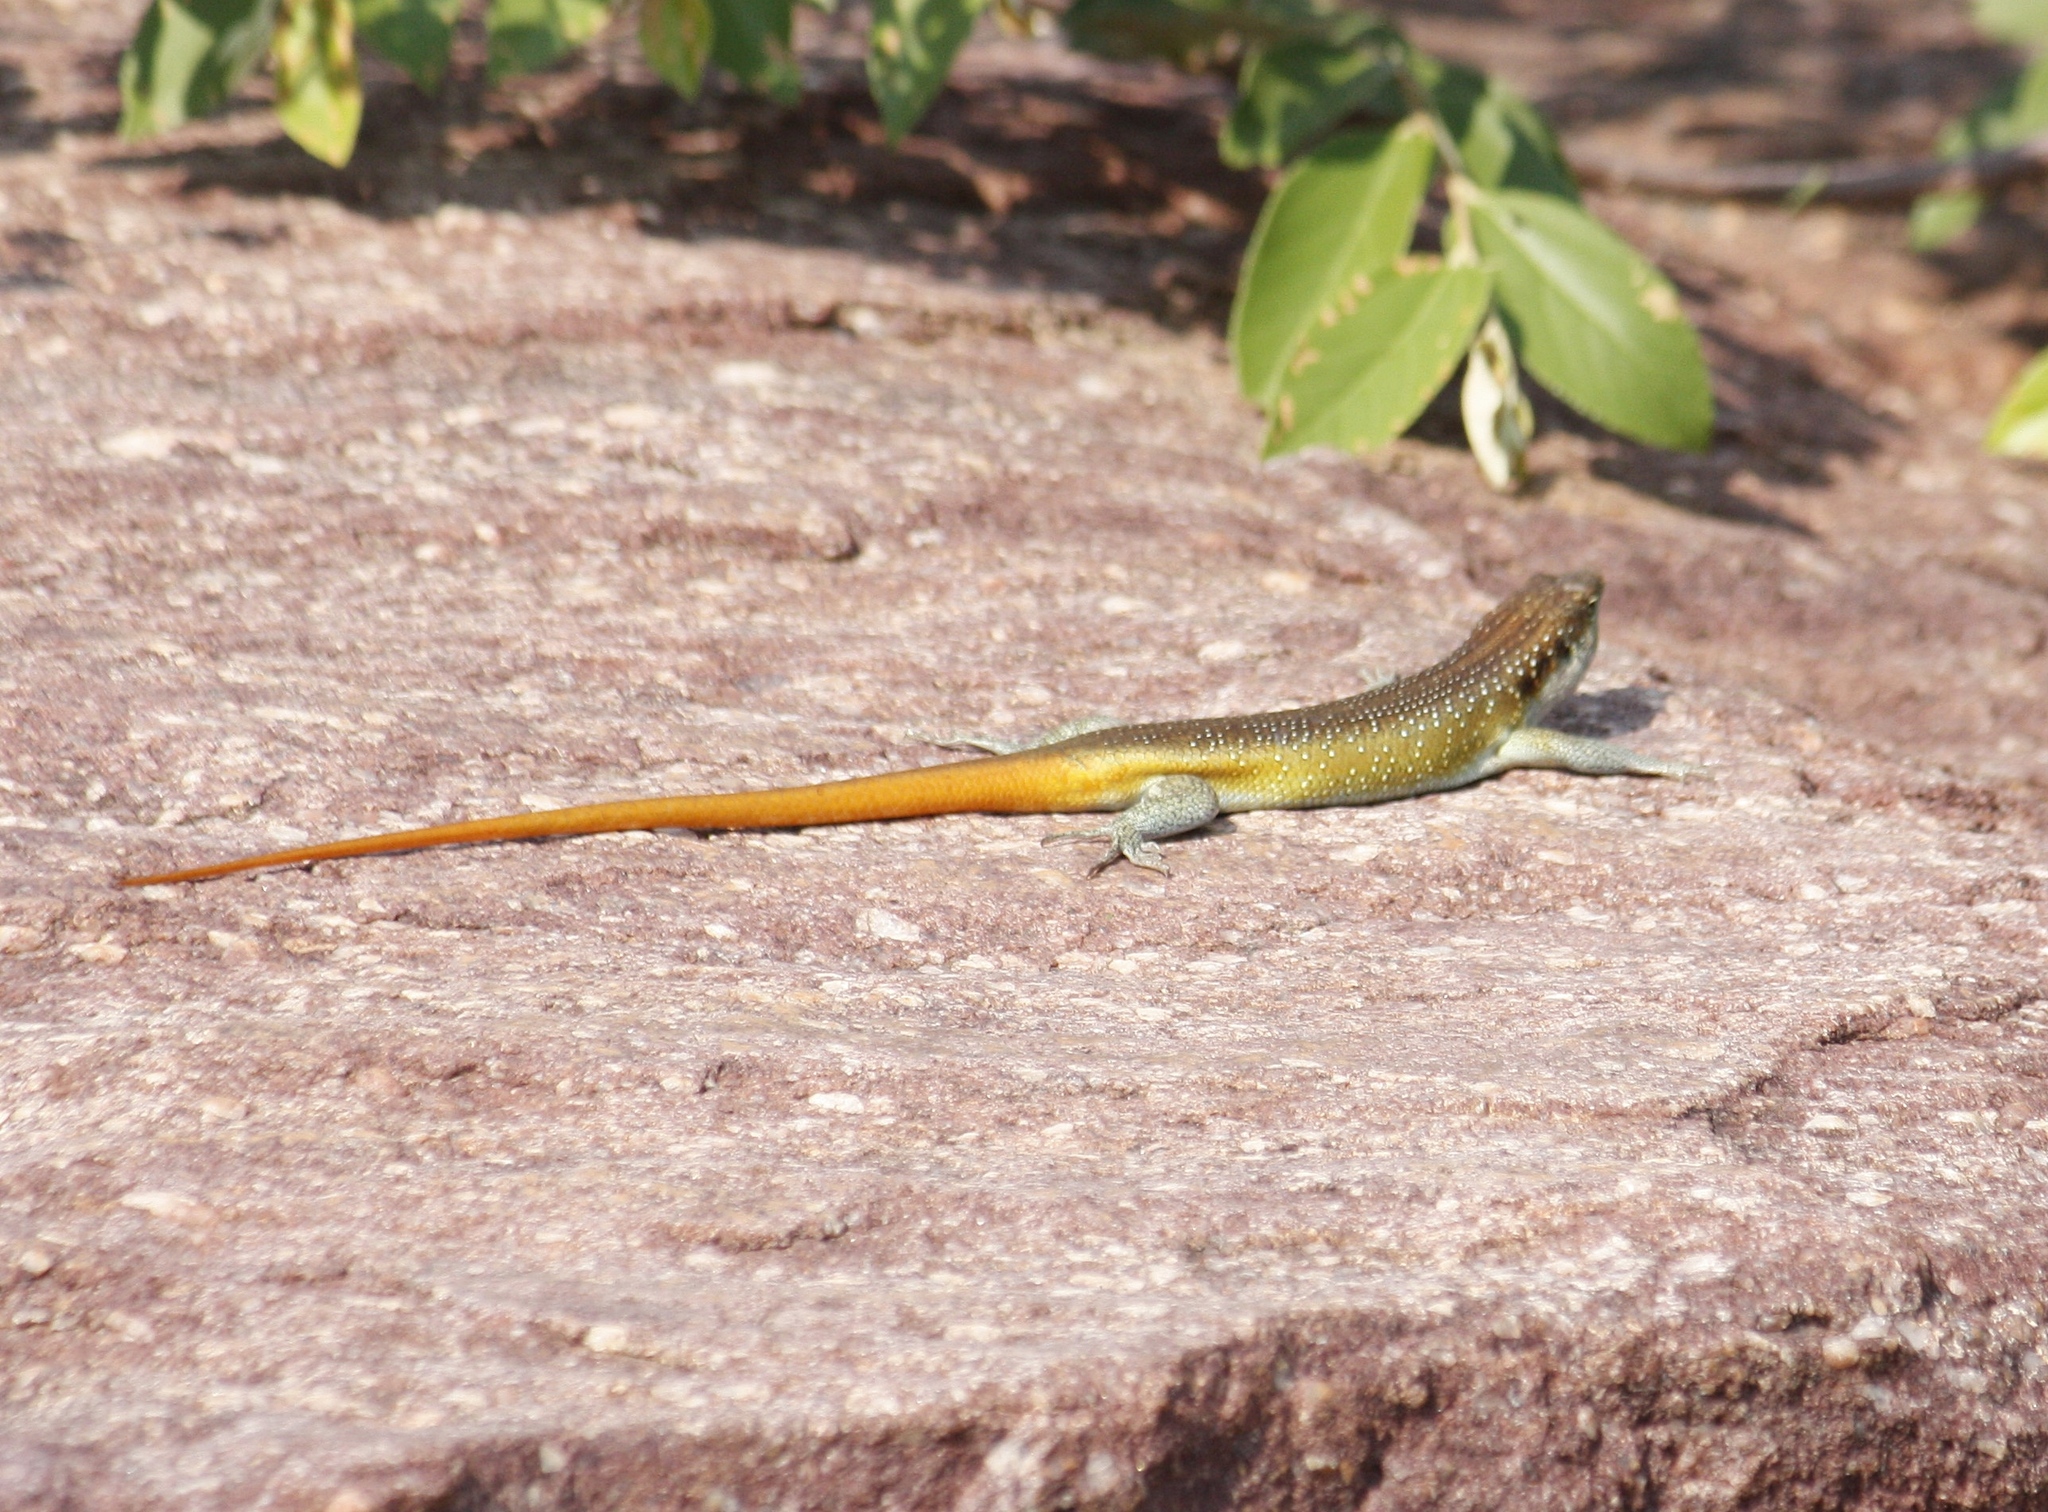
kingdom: Animalia
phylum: Chordata
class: Squamata
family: Scincidae
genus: Trachylepis
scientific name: Trachylepis margaritifera
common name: Rainbow skink
